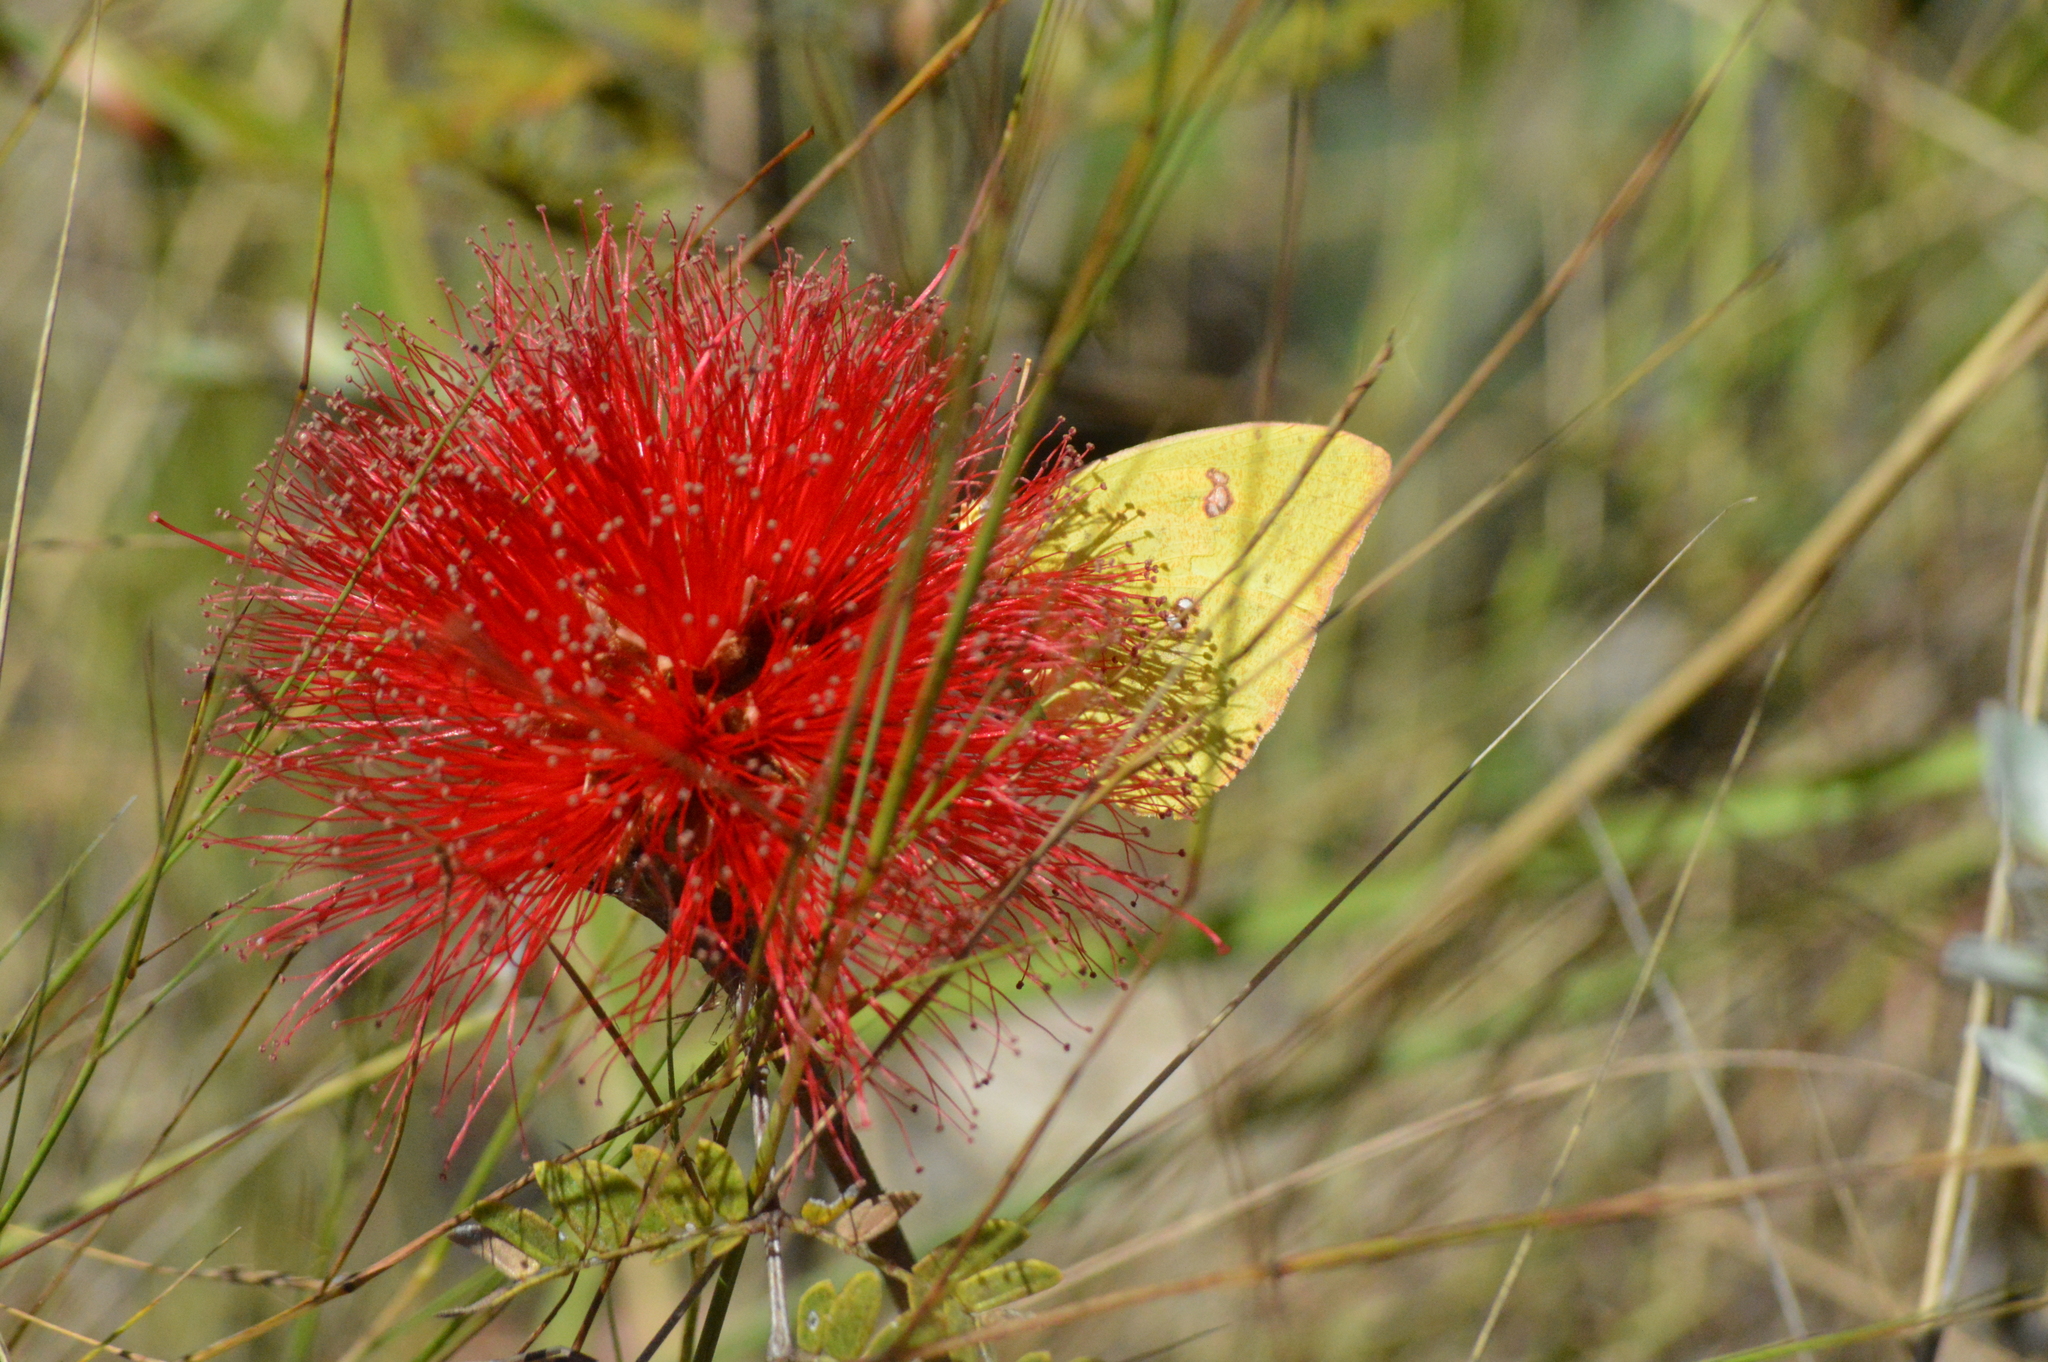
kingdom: Animalia
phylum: Arthropoda
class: Insecta
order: Lepidoptera
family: Pieridae
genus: Phoebis
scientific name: Phoebis marcellina
